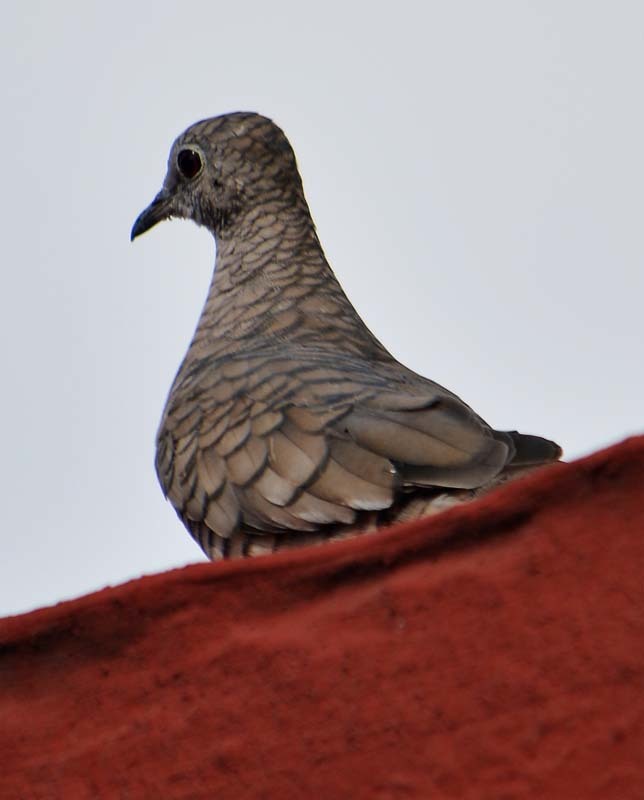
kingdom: Animalia
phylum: Chordata
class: Aves
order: Columbiformes
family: Columbidae
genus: Columbina
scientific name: Columbina inca
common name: Inca dove
